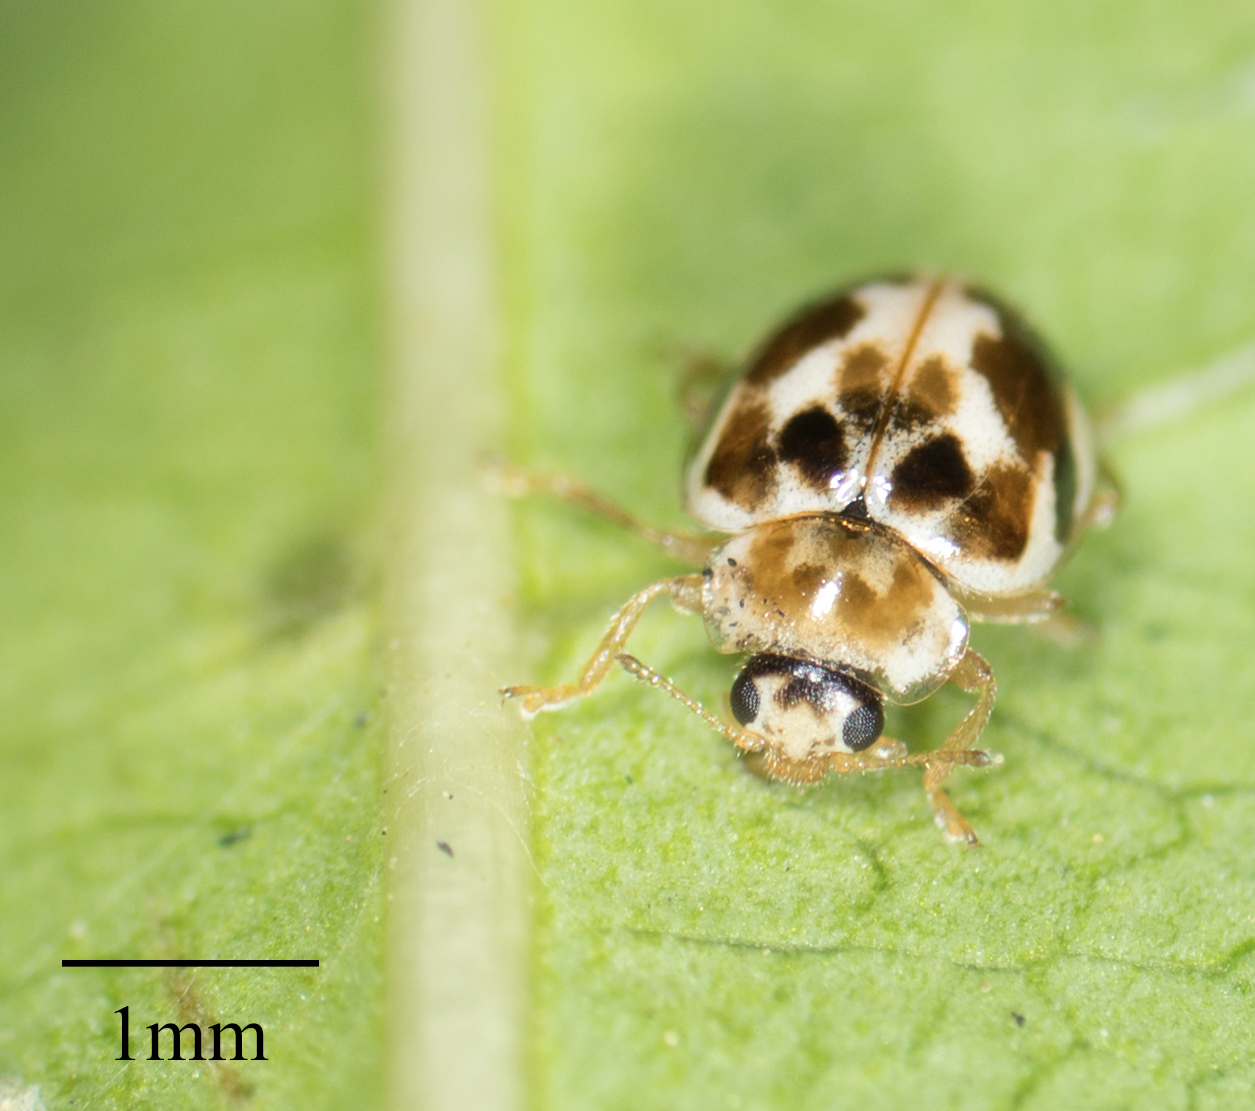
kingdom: Animalia
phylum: Arthropoda
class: Insecta
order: Coleoptera
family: Coccinellidae
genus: Psyllobora
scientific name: Psyllobora vigintimaculata
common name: Ladybird beetle
